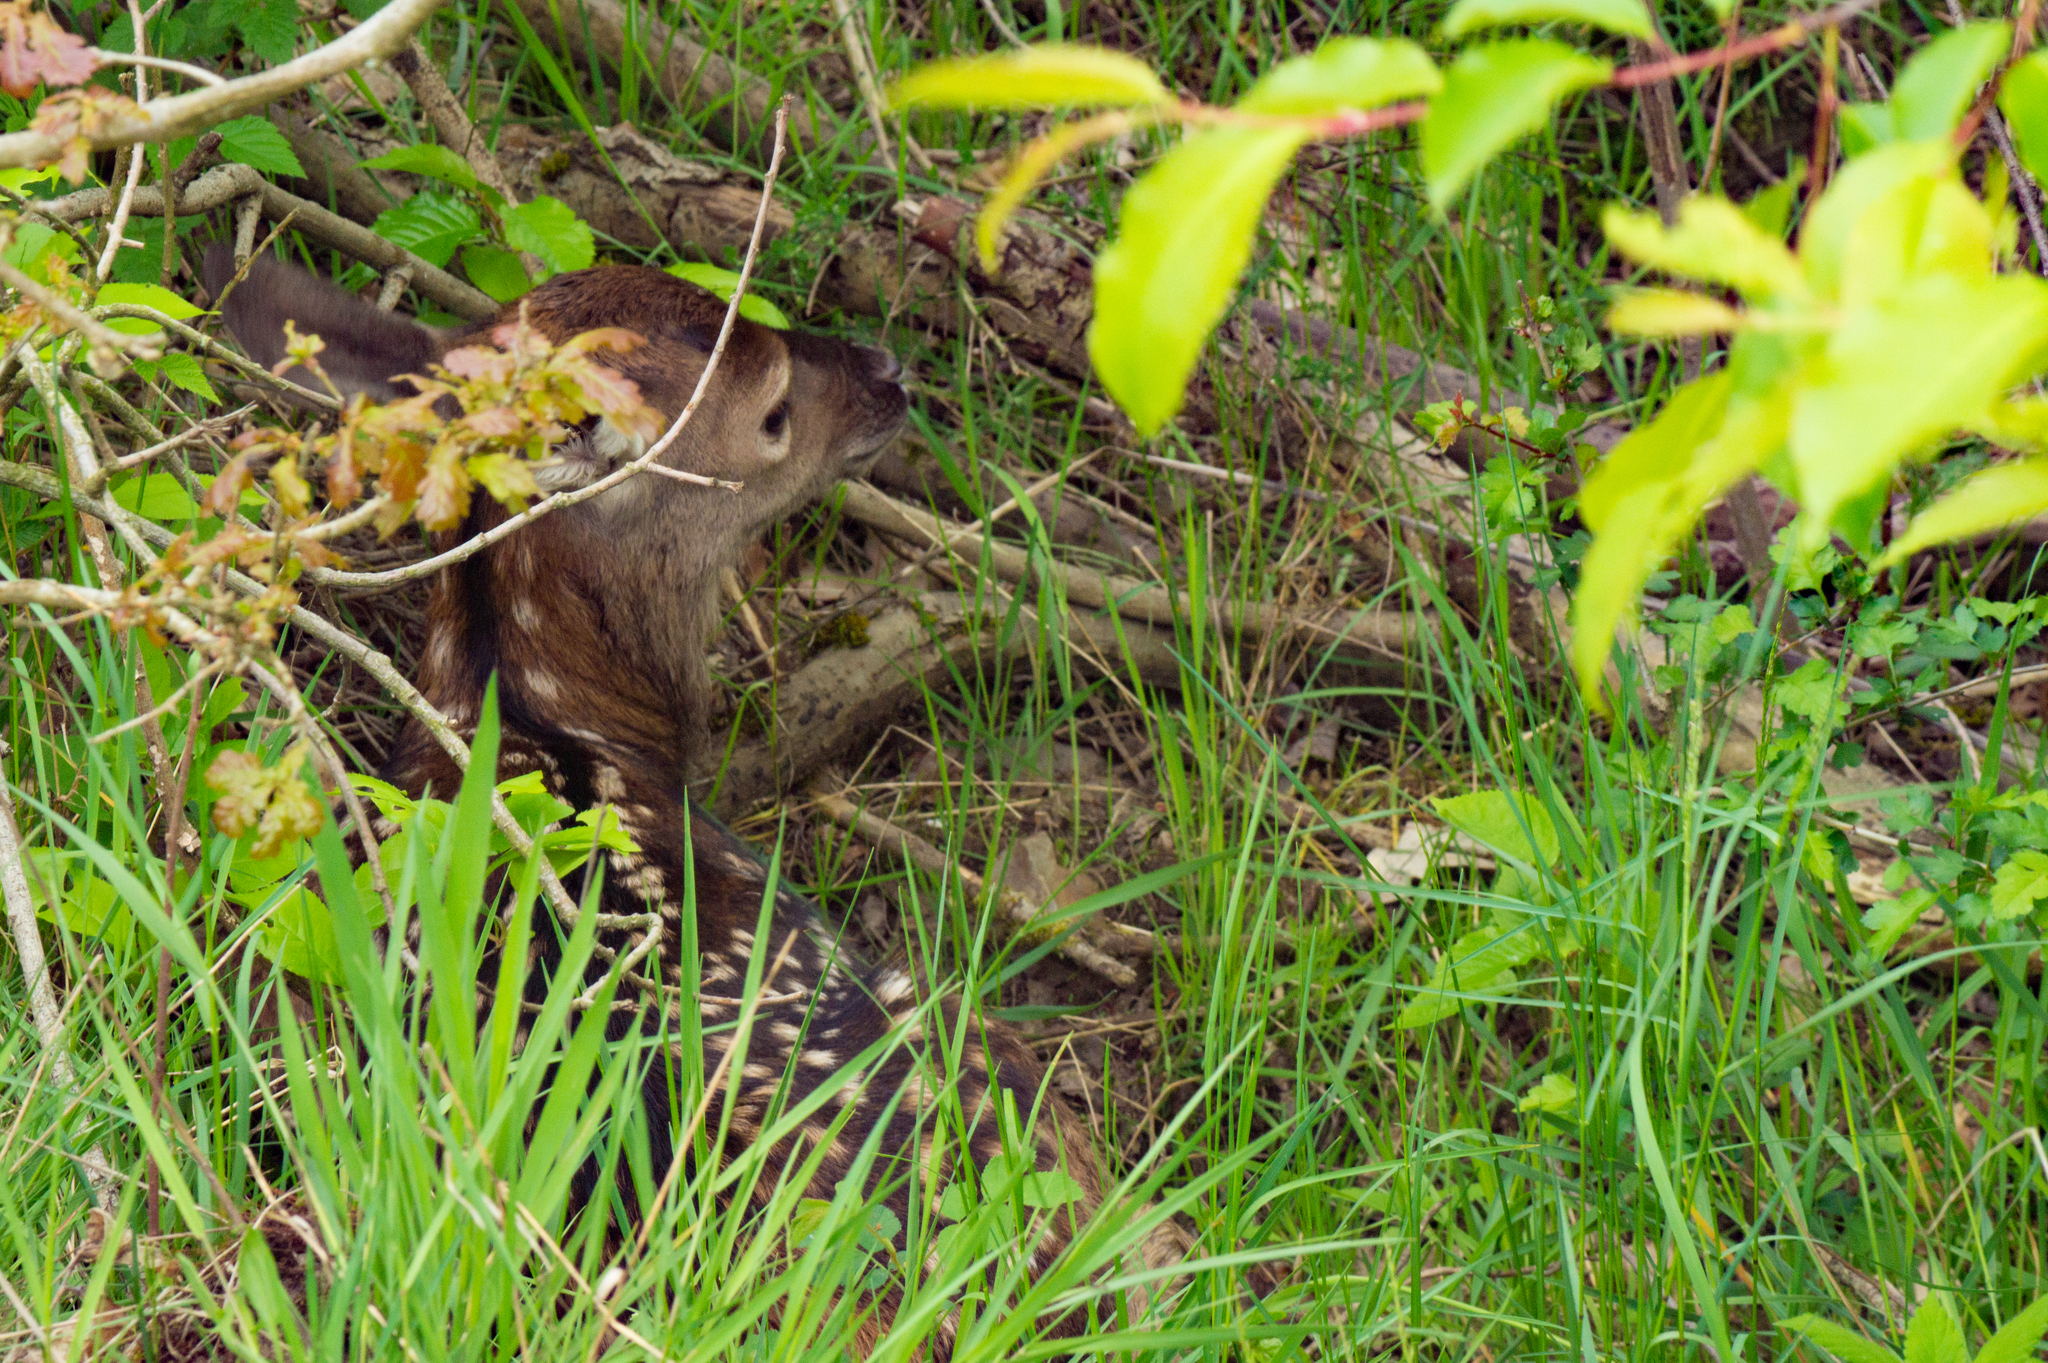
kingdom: Animalia
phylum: Chordata
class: Mammalia
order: Artiodactyla
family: Cervidae
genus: Capreolus
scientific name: Capreolus capreolus
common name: Western roe deer
